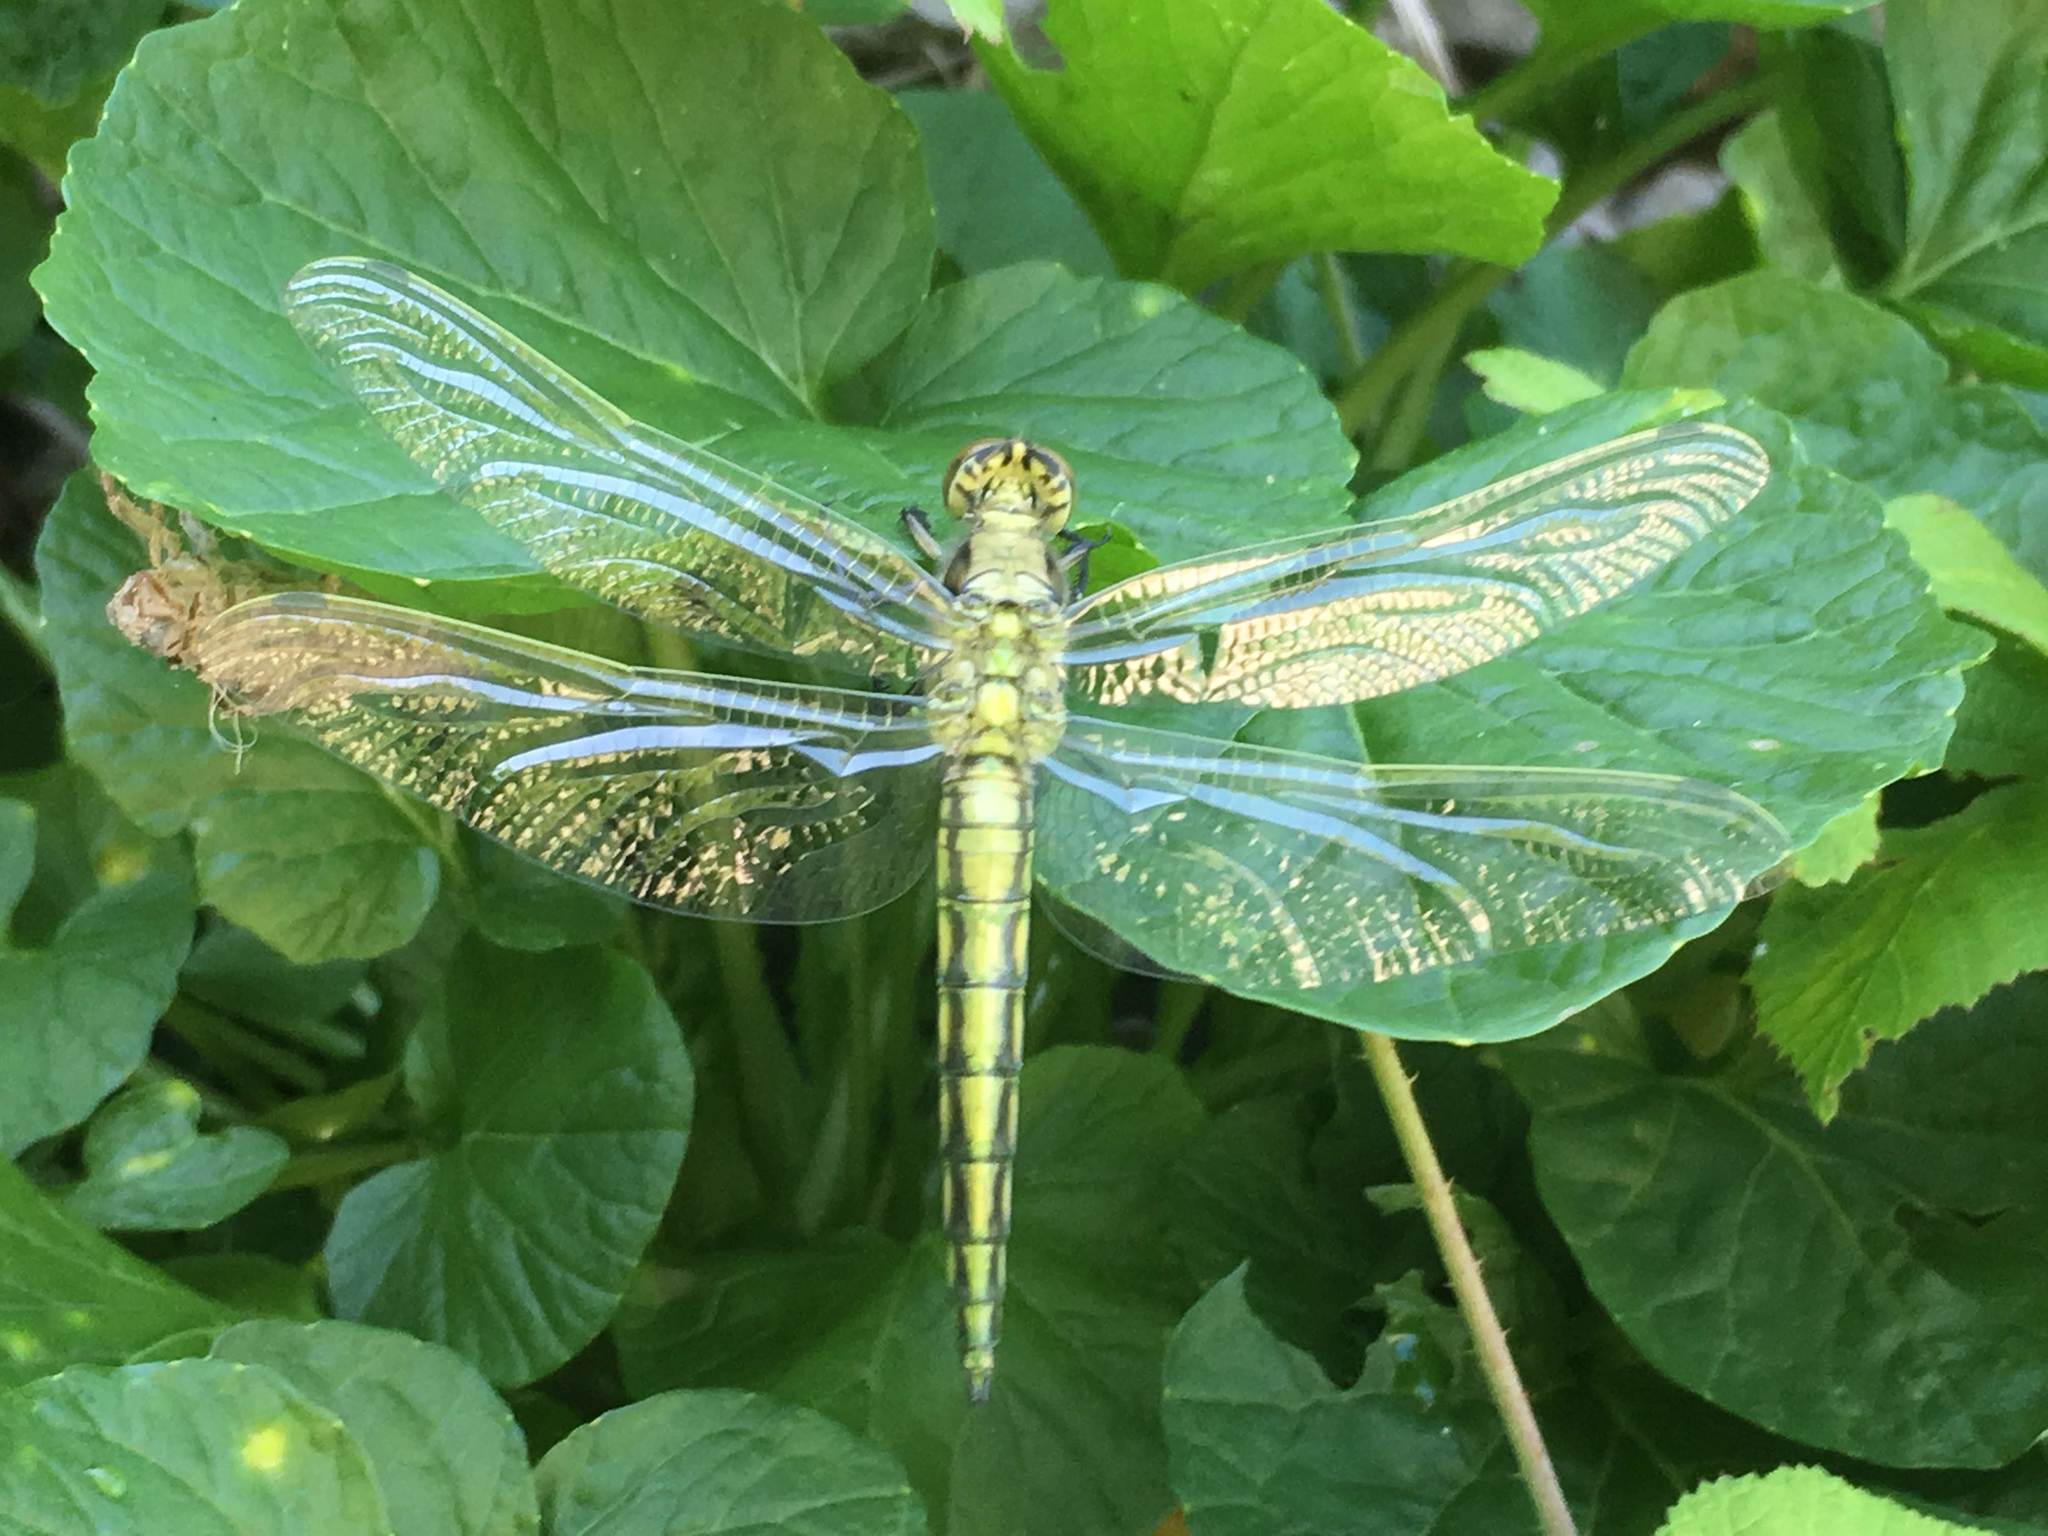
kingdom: Animalia
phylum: Arthropoda
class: Insecta
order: Odonata
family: Libellulidae
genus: Orthetrum
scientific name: Orthetrum cancellatum
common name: Black-tailed skimmer
